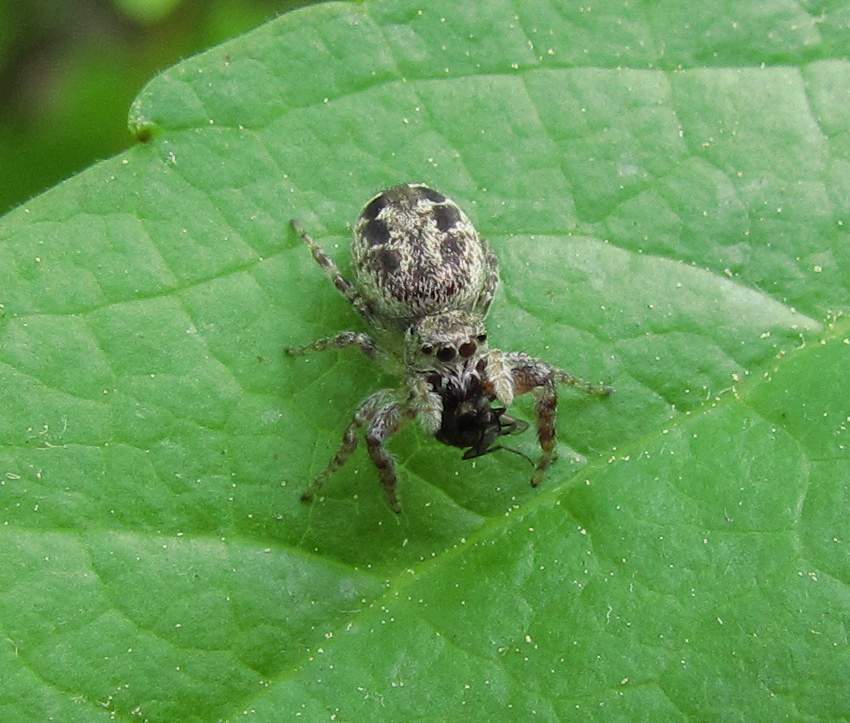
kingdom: Animalia
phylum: Arthropoda
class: Arachnida
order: Araneae
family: Salticidae
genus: Pelegrina
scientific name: Pelegrina proterva
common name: Common white-cheeked jumping spider
